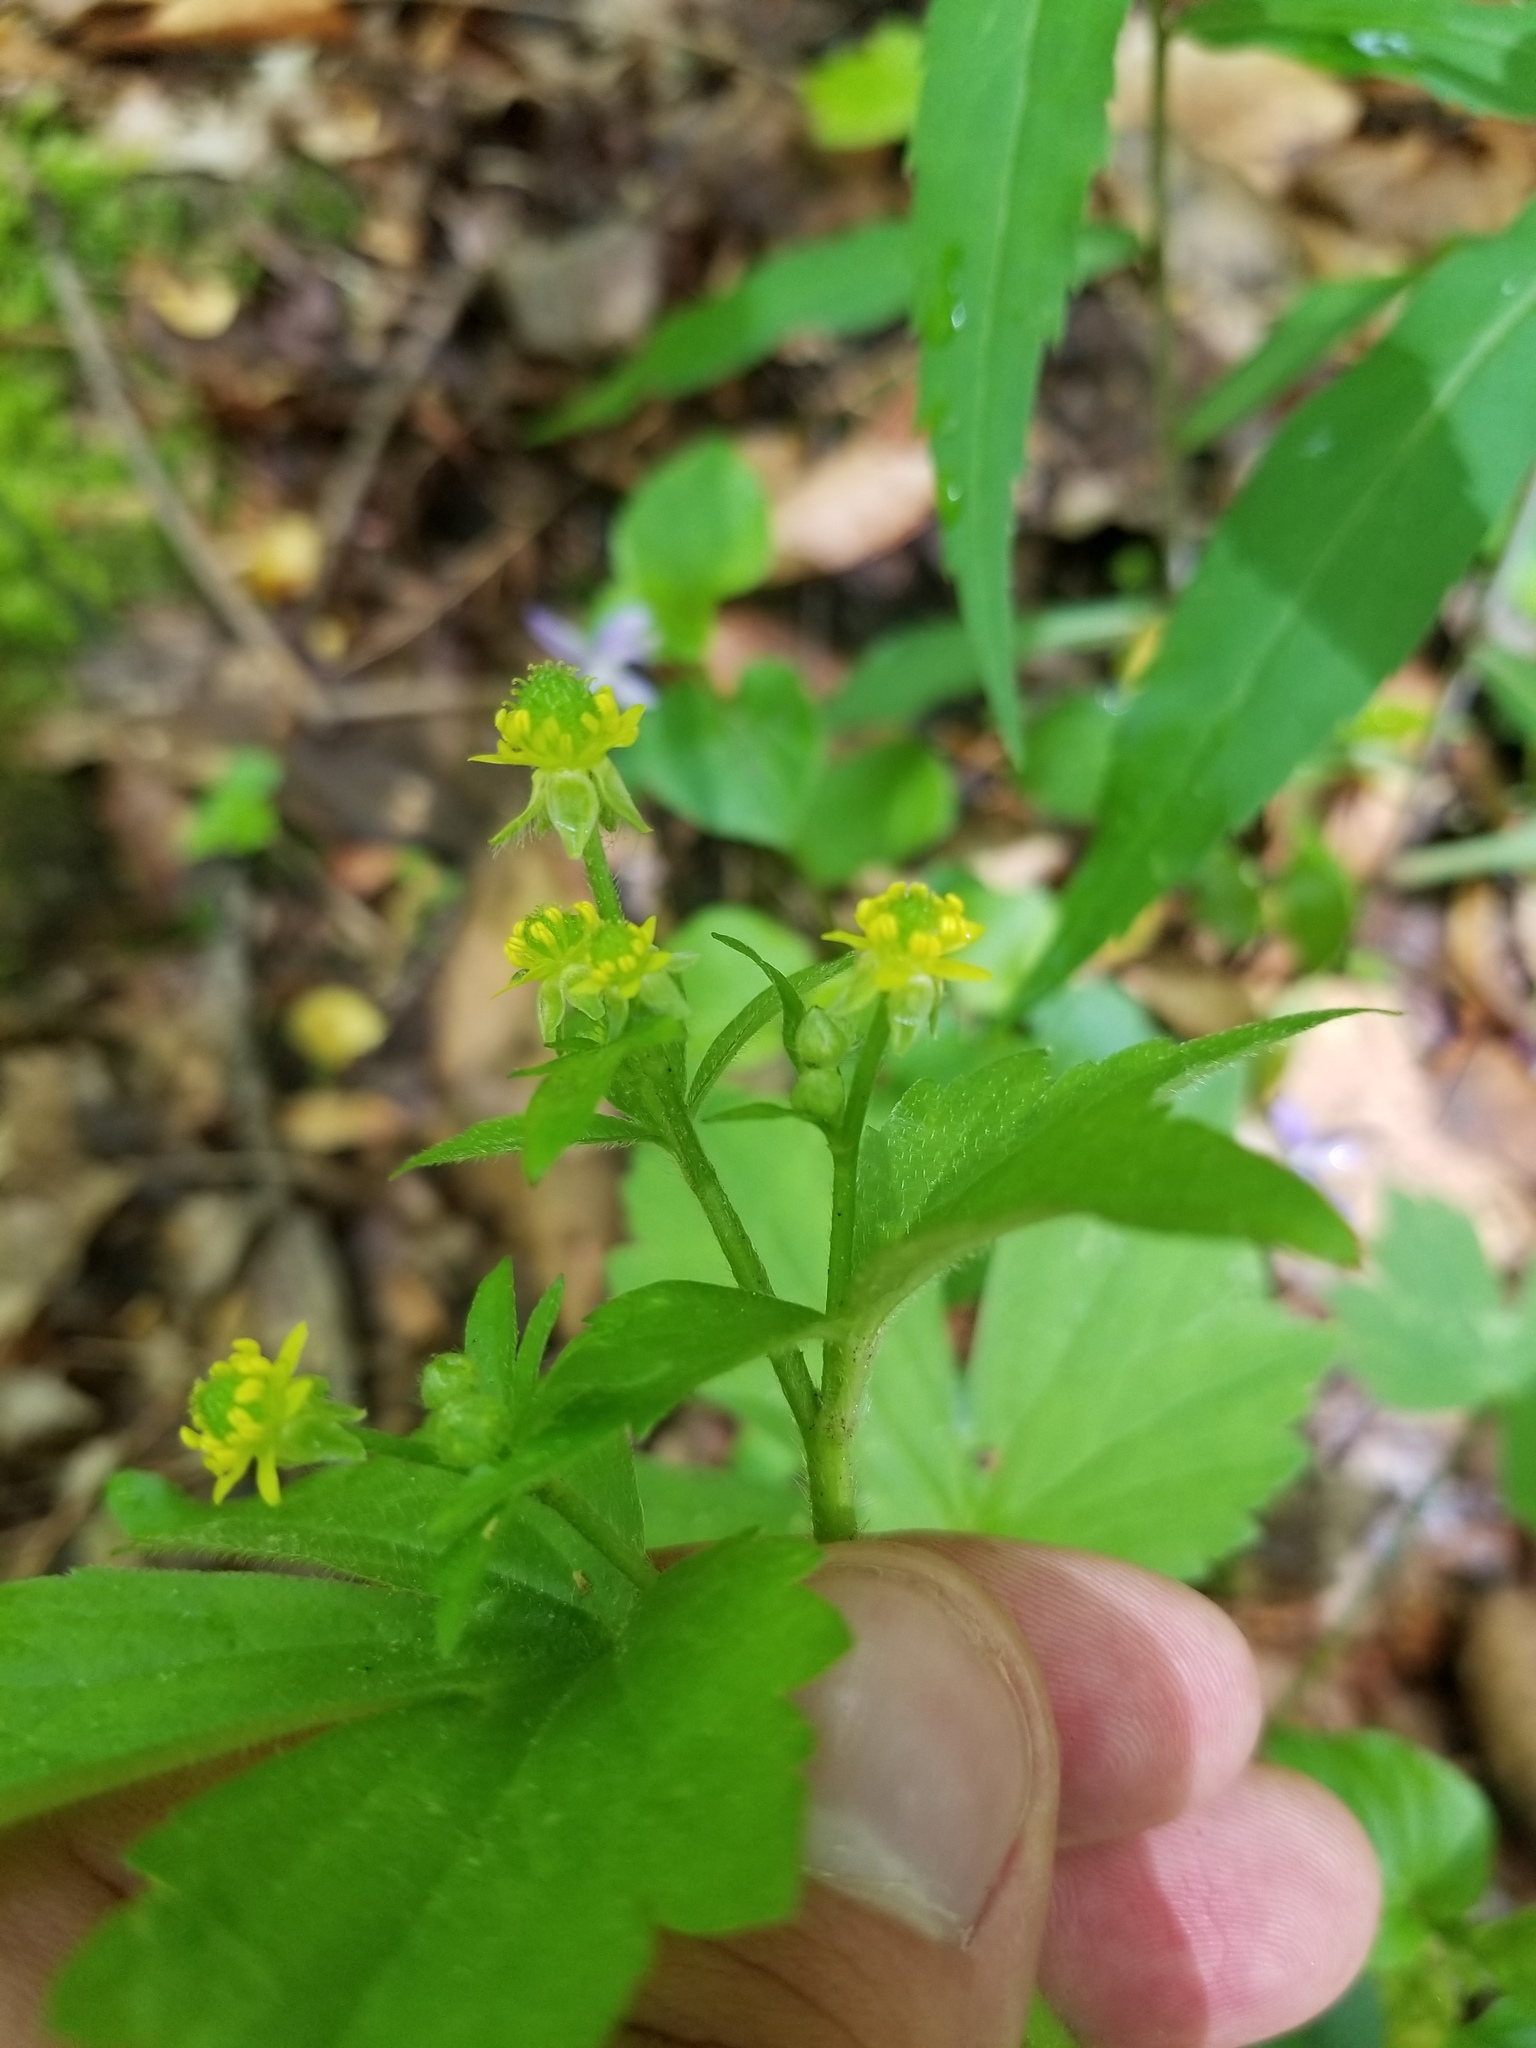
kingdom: Plantae
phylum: Tracheophyta
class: Magnoliopsida
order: Ranunculales
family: Ranunculaceae
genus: Ranunculus
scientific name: Ranunculus recurvatus
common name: Blisterwort
